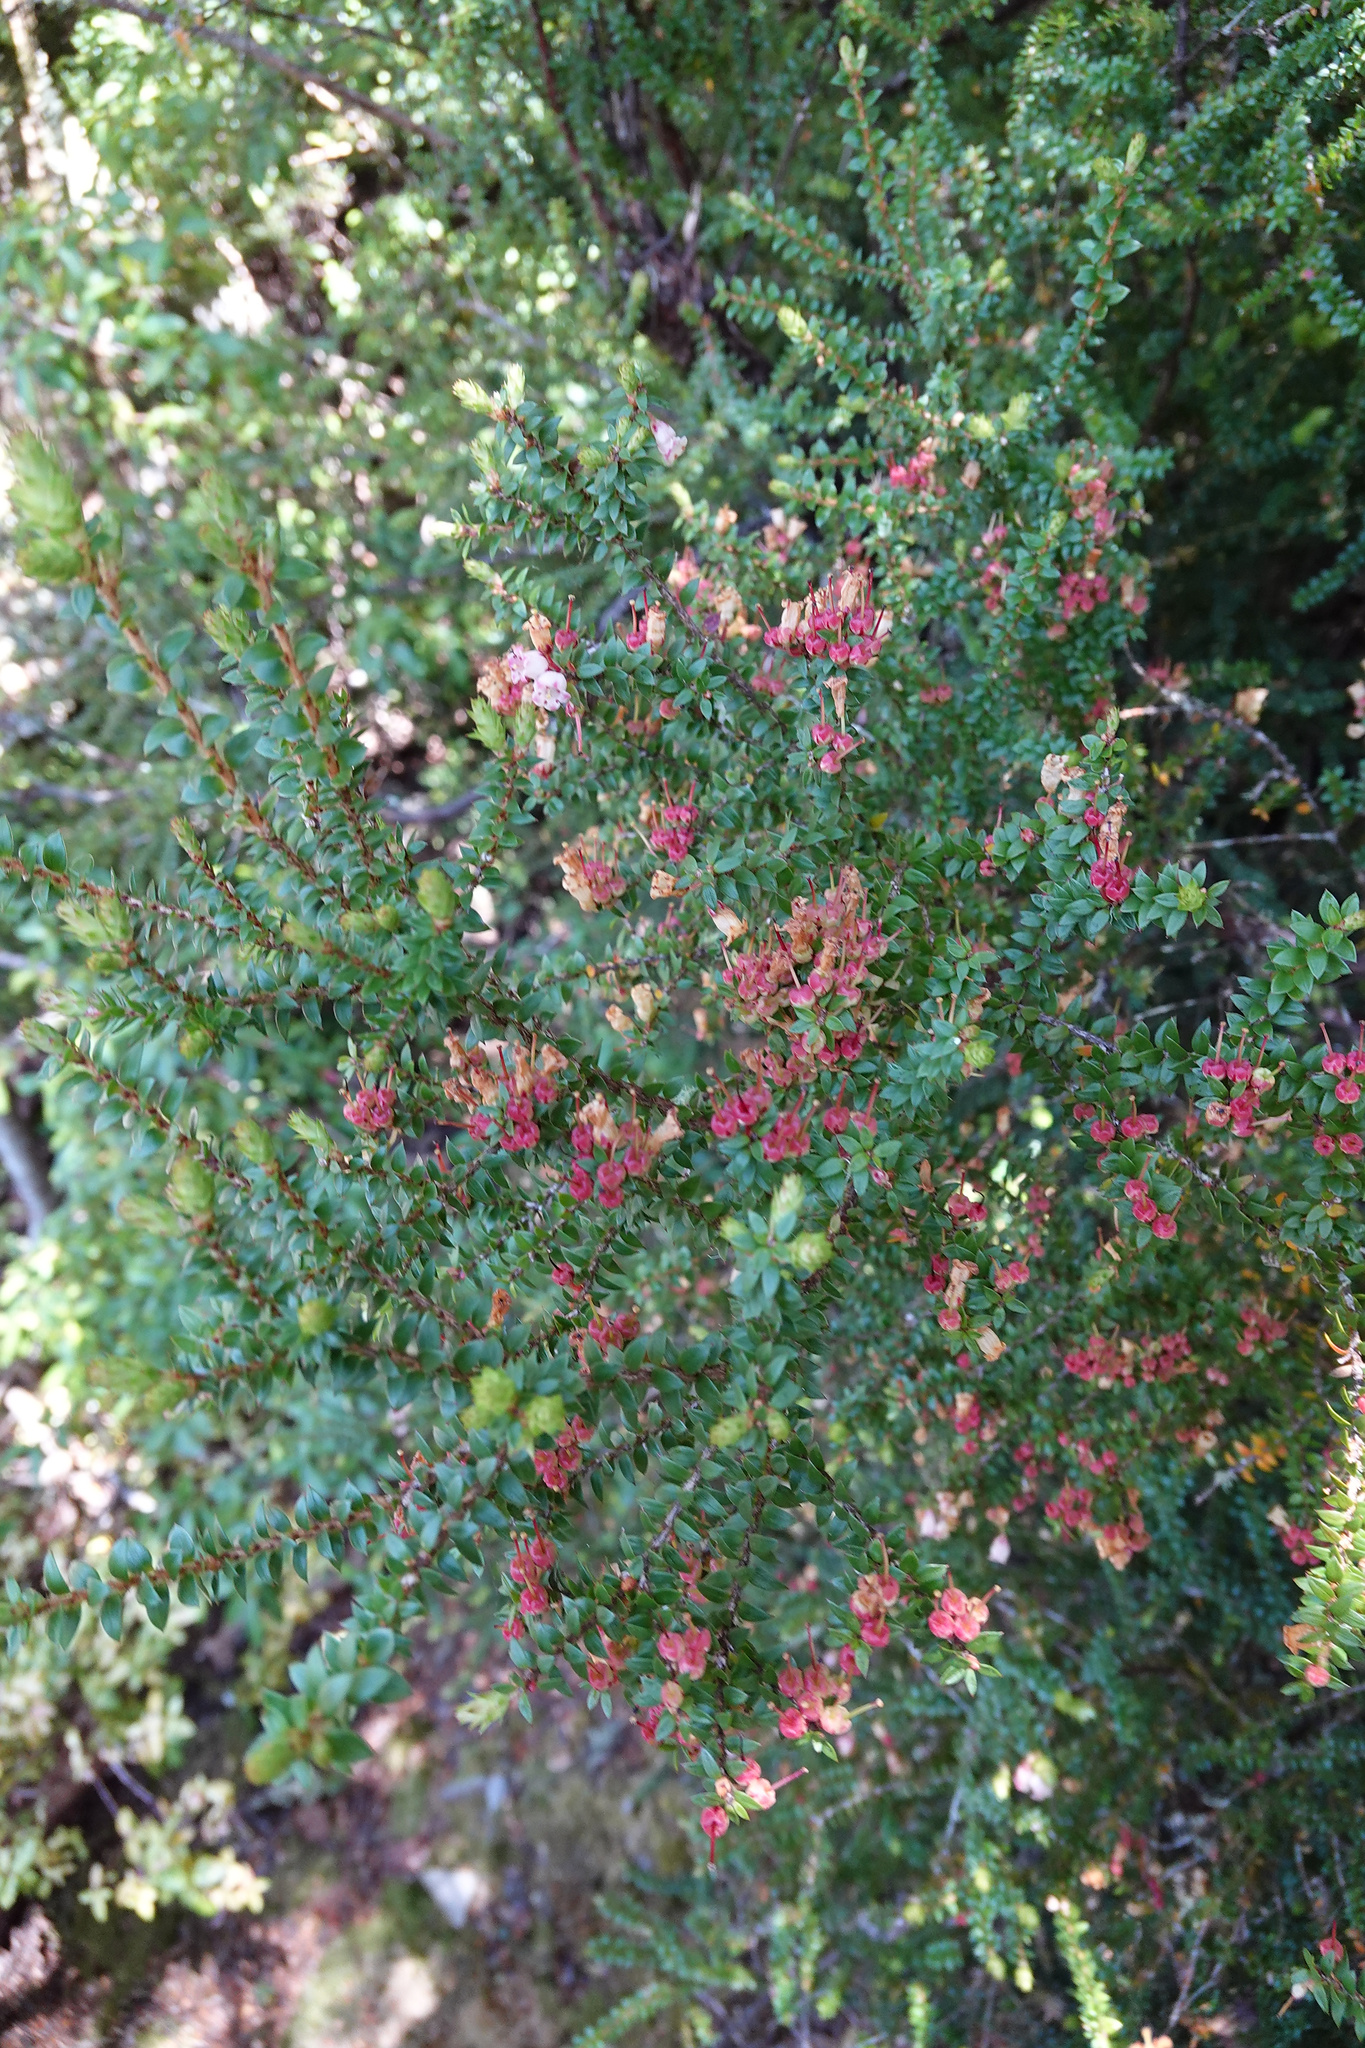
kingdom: Plantae
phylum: Tracheophyta
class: Magnoliopsida
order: Ericales
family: Ericaceae
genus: Archeria
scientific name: Archeria eriocarpa
